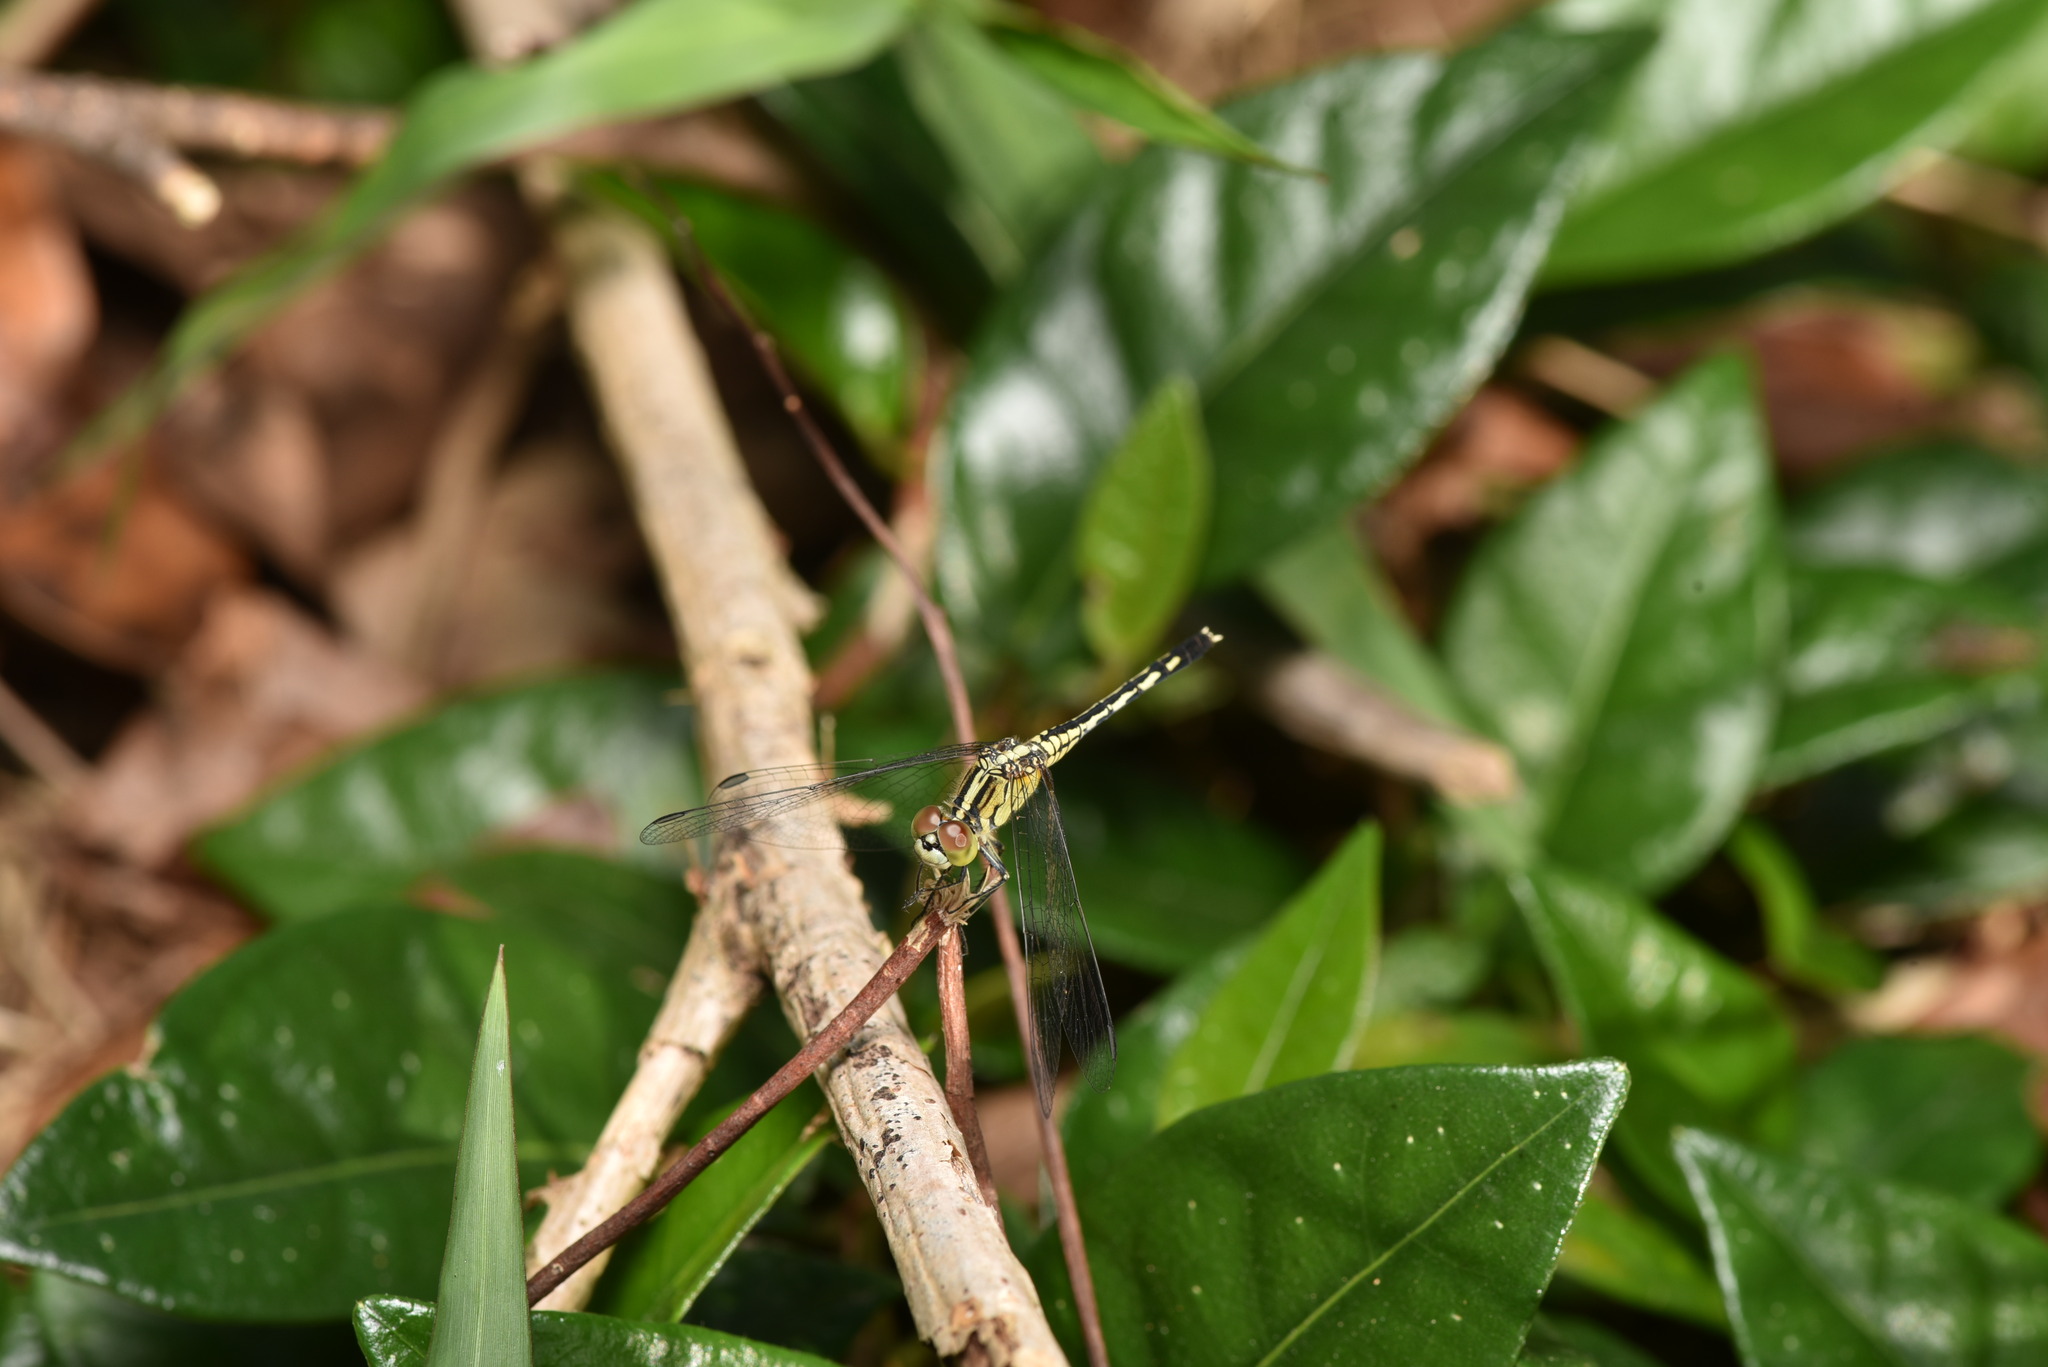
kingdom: Animalia
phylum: Arthropoda
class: Insecta
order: Odonata
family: Libellulidae
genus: Diplacodes
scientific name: Diplacodes trivialis
